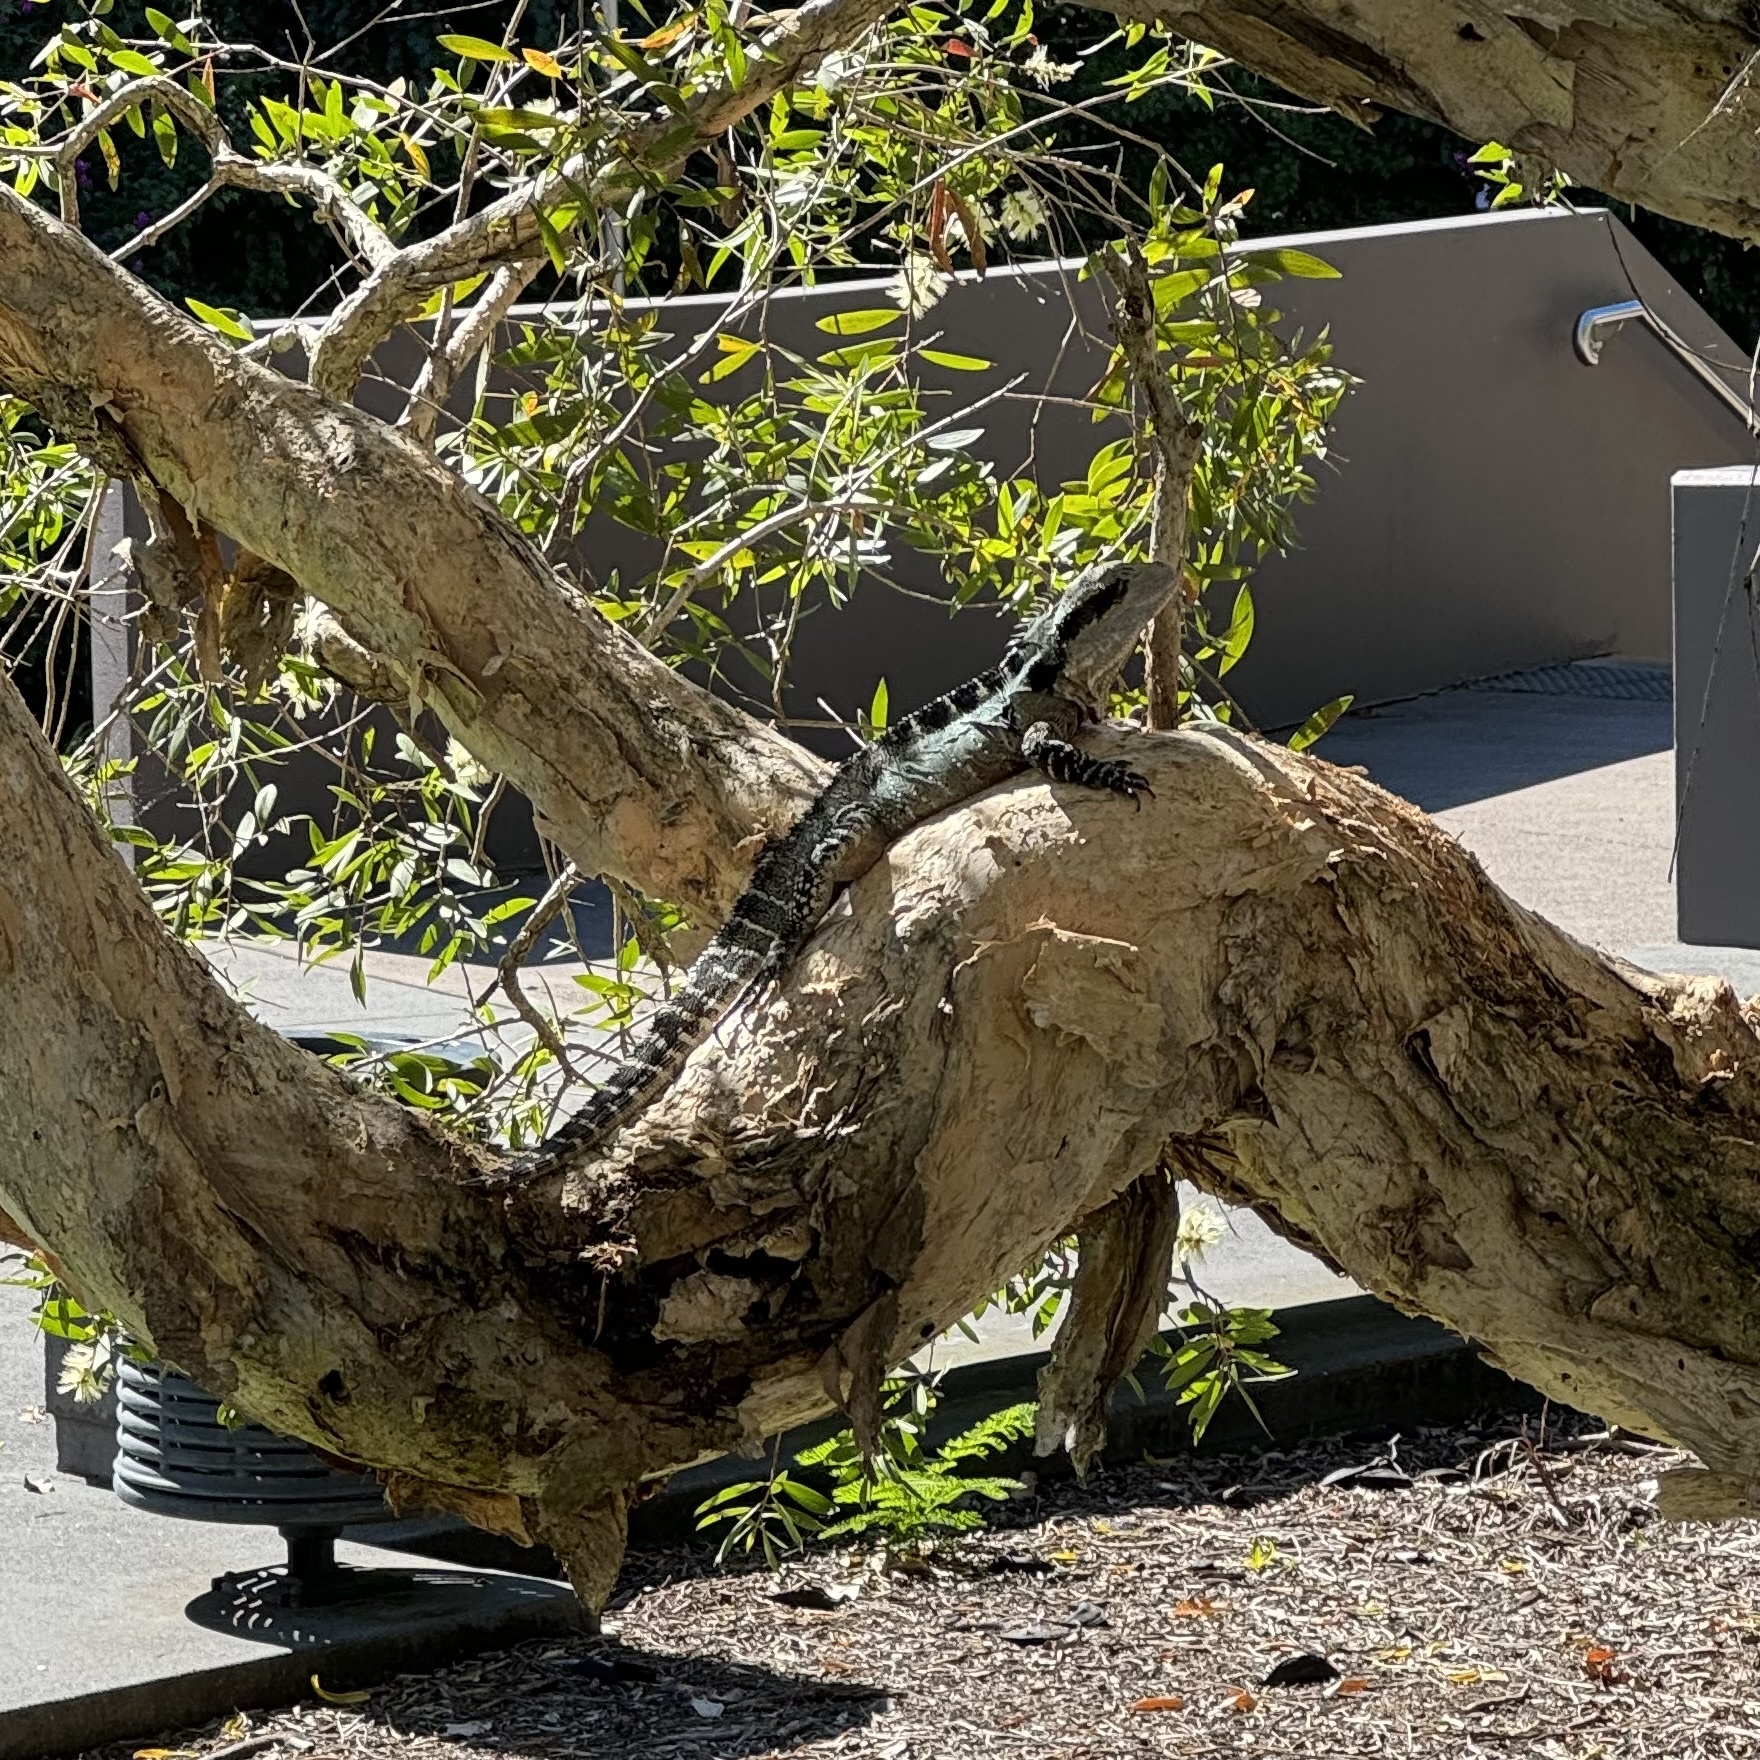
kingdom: Animalia
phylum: Chordata
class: Squamata
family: Agamidae
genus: Intellagama
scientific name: Intellagama lesueurii
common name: Eastern water dragon
